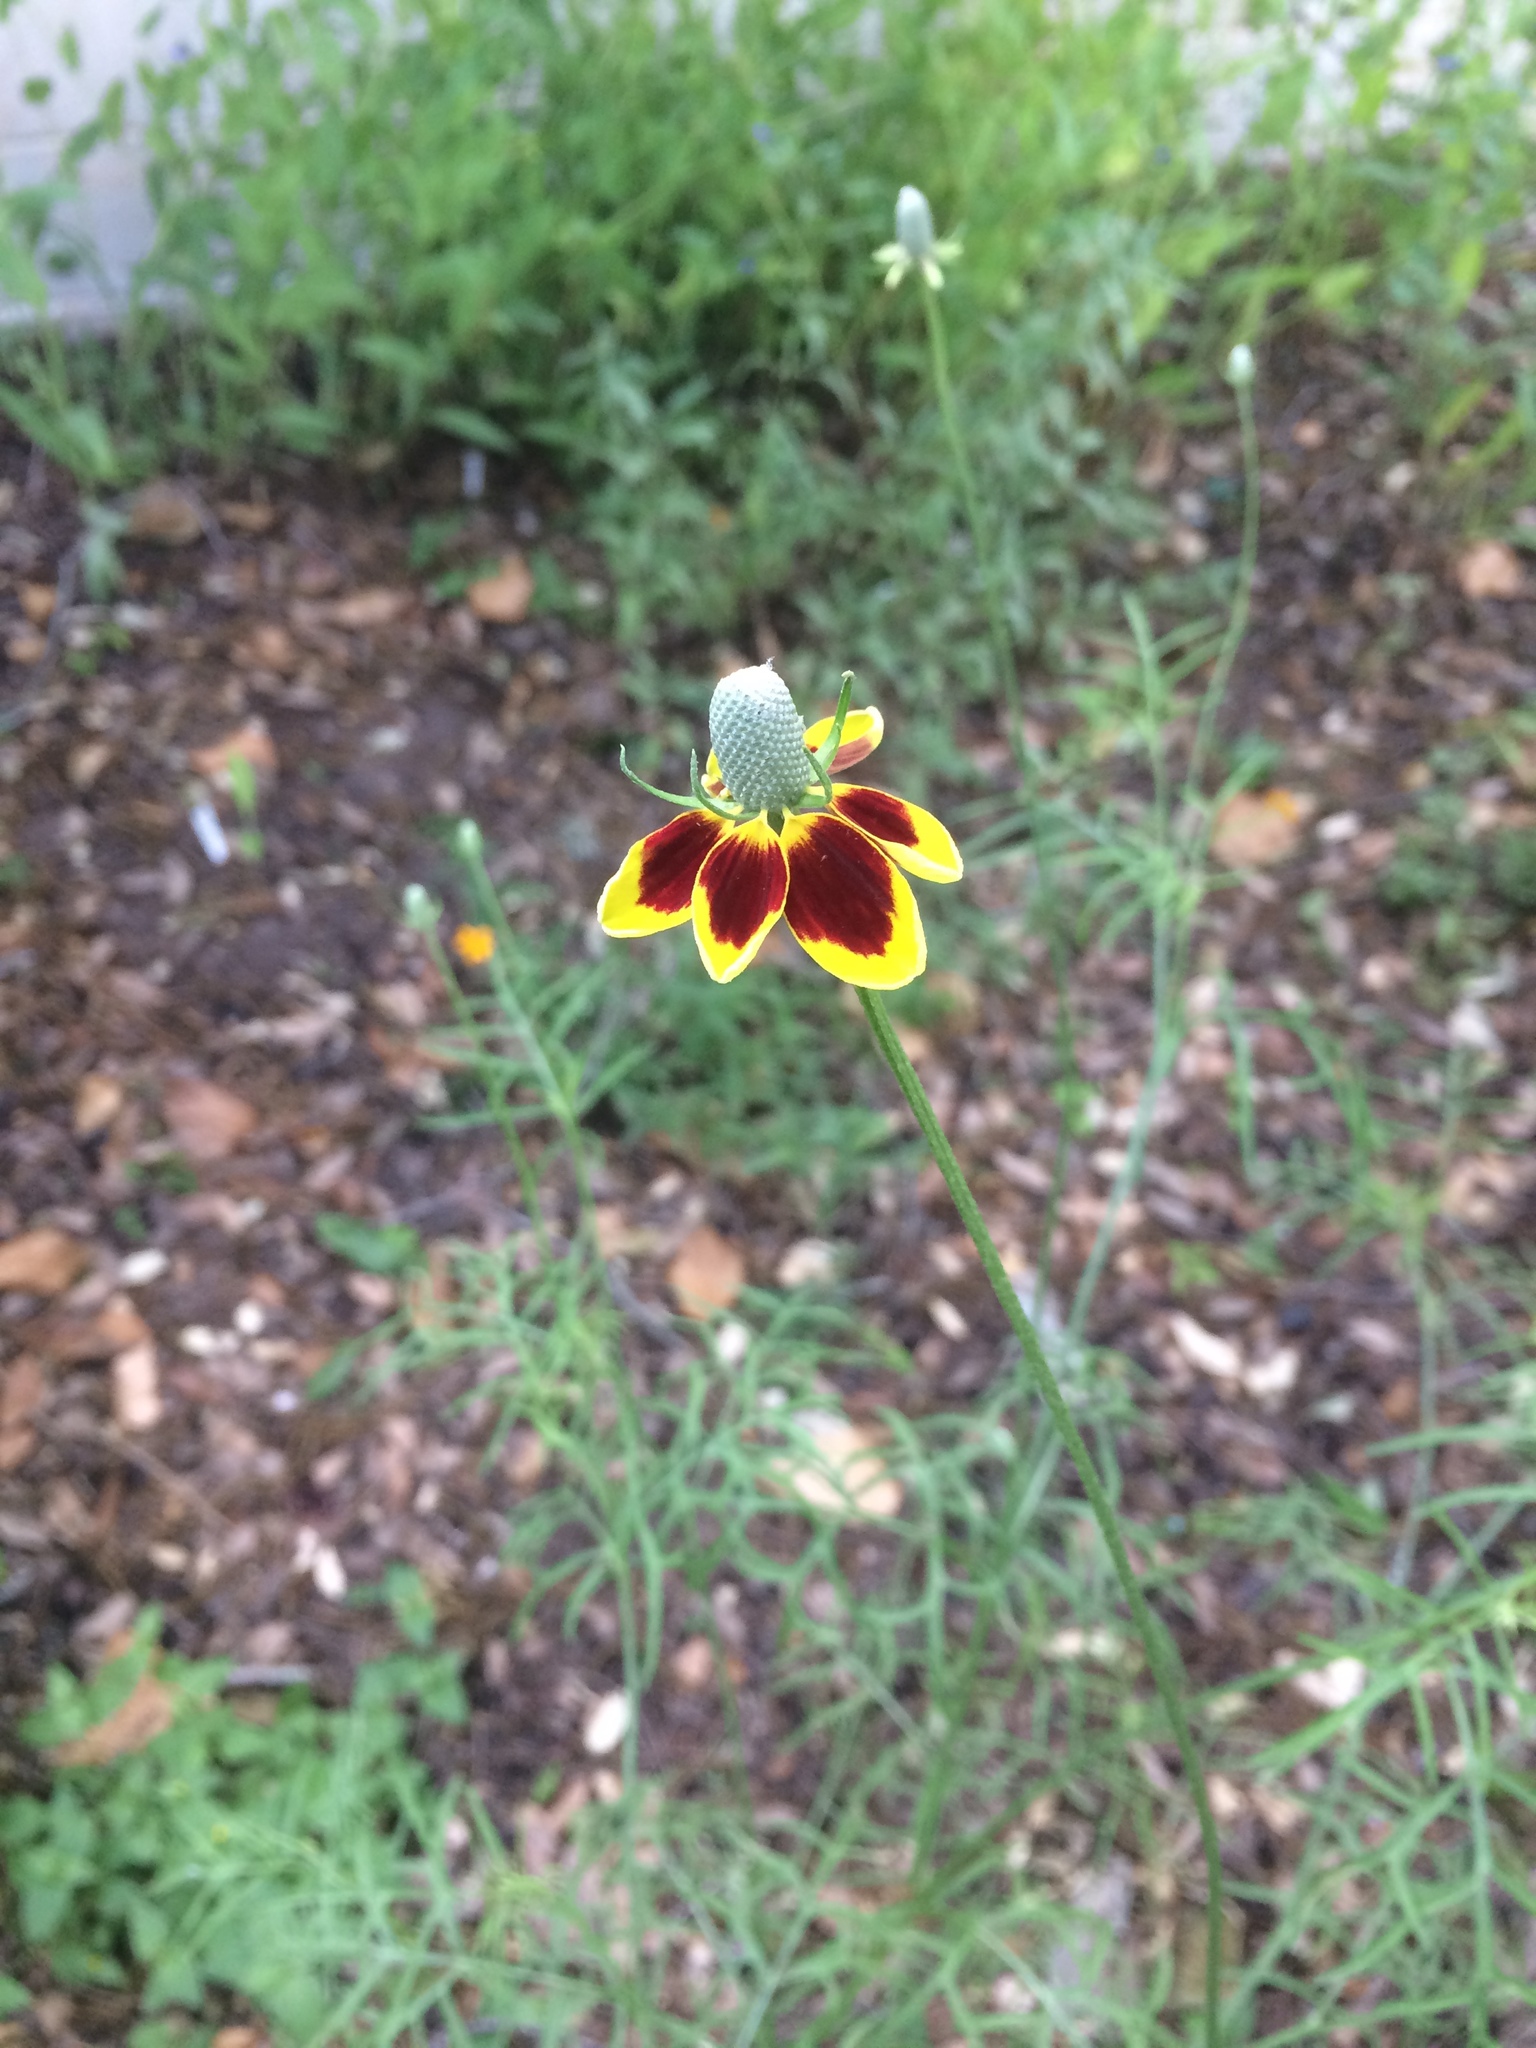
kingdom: Plantae
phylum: Tracheophyta
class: Magnoliopsida
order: Asterales
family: Asteraceae
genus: Ratibida
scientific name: Ratibida columnifera
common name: Prairie coneflower
